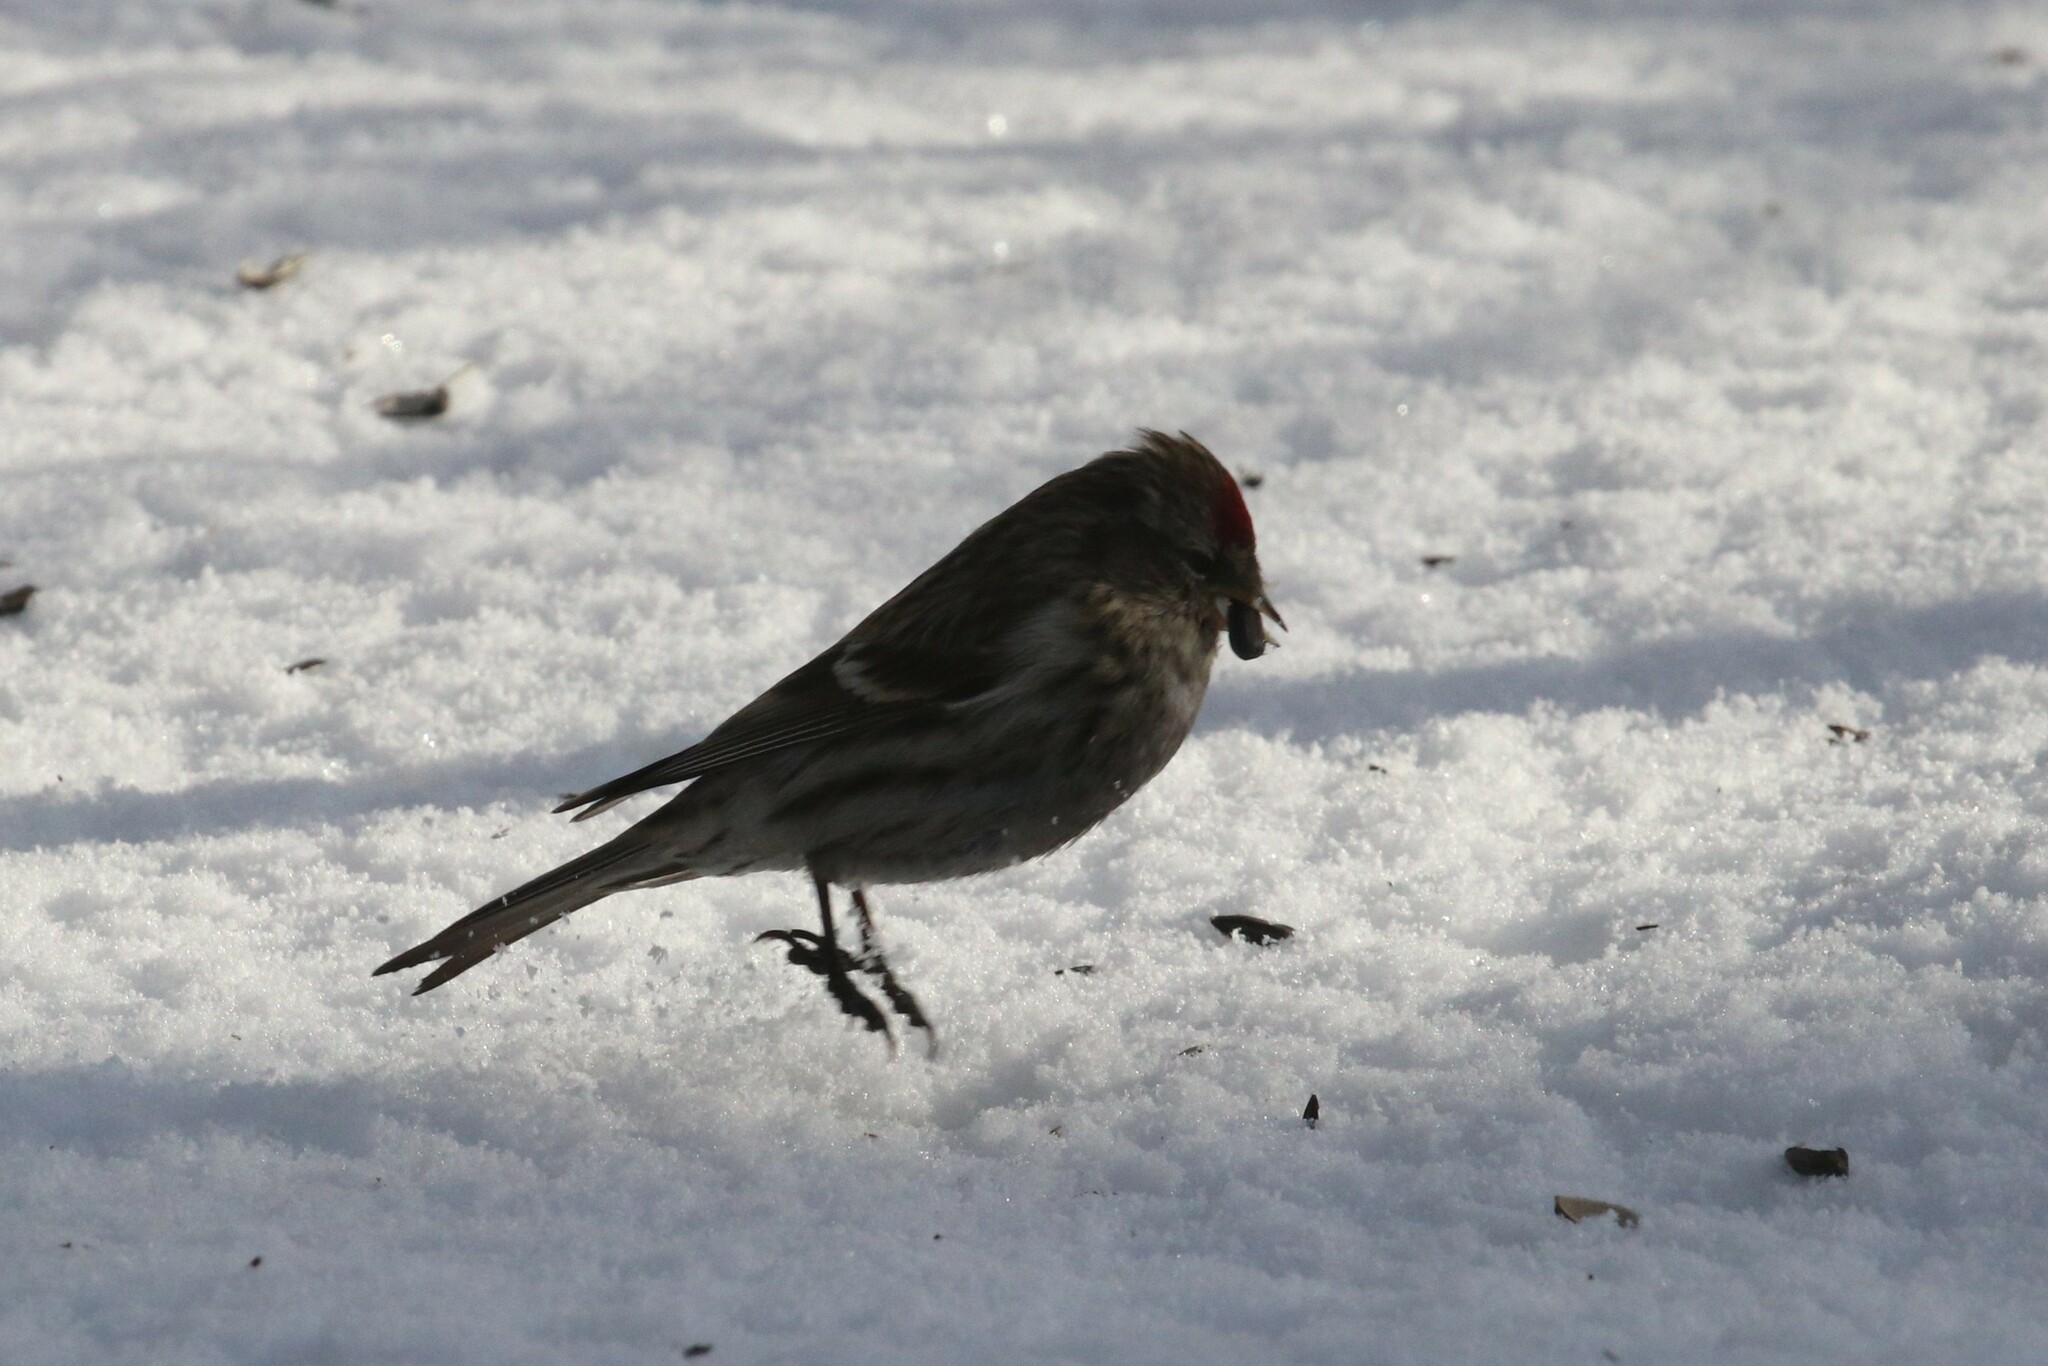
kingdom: Animalia
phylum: Chordata
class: Aves
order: Passeriformes
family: Fringillidae
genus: Acanthis
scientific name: Acanthis flammea
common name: Common redpoll
